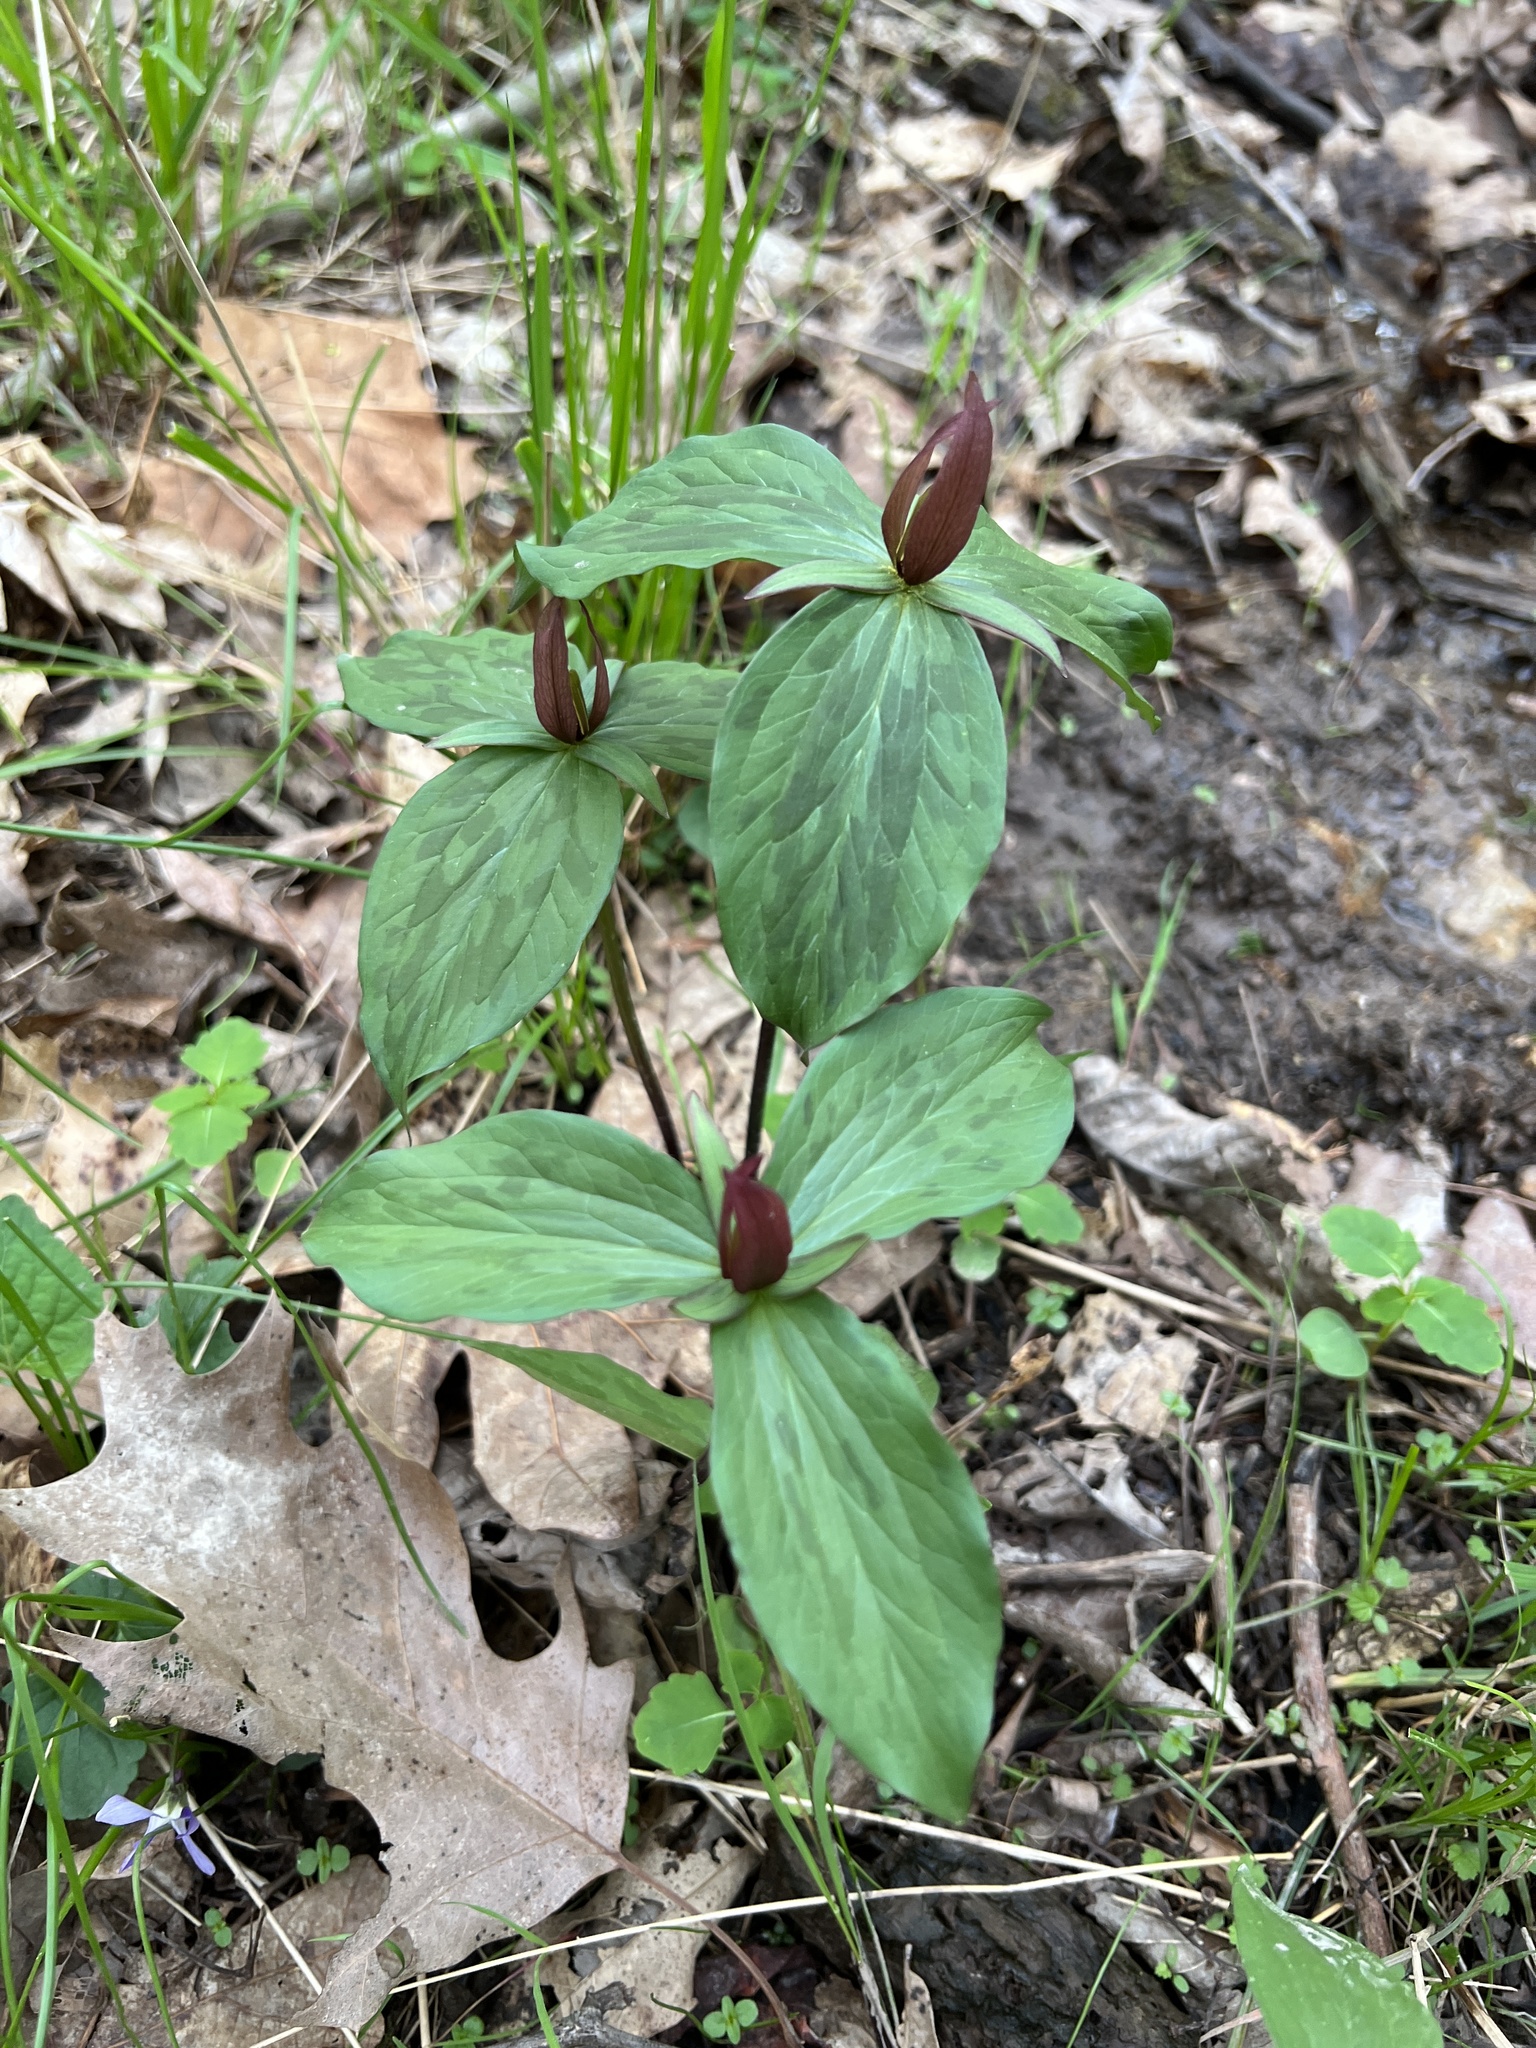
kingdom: Plantae
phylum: Tracheophyta
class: Liliopsida
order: Liliales
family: Melanthiaceae
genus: Trillium
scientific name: Trillium sessile
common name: Sessile trillium
